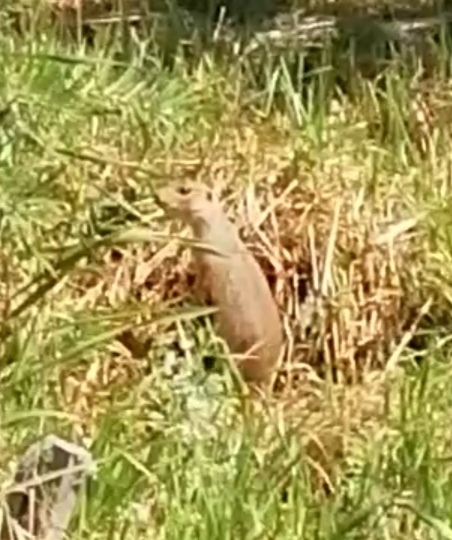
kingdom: Animalia
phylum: Chordata
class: Mammalia
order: Rodentia
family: Sciuridae
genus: Spermophilus
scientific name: Spermophilus major
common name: Russet ground squirrel
